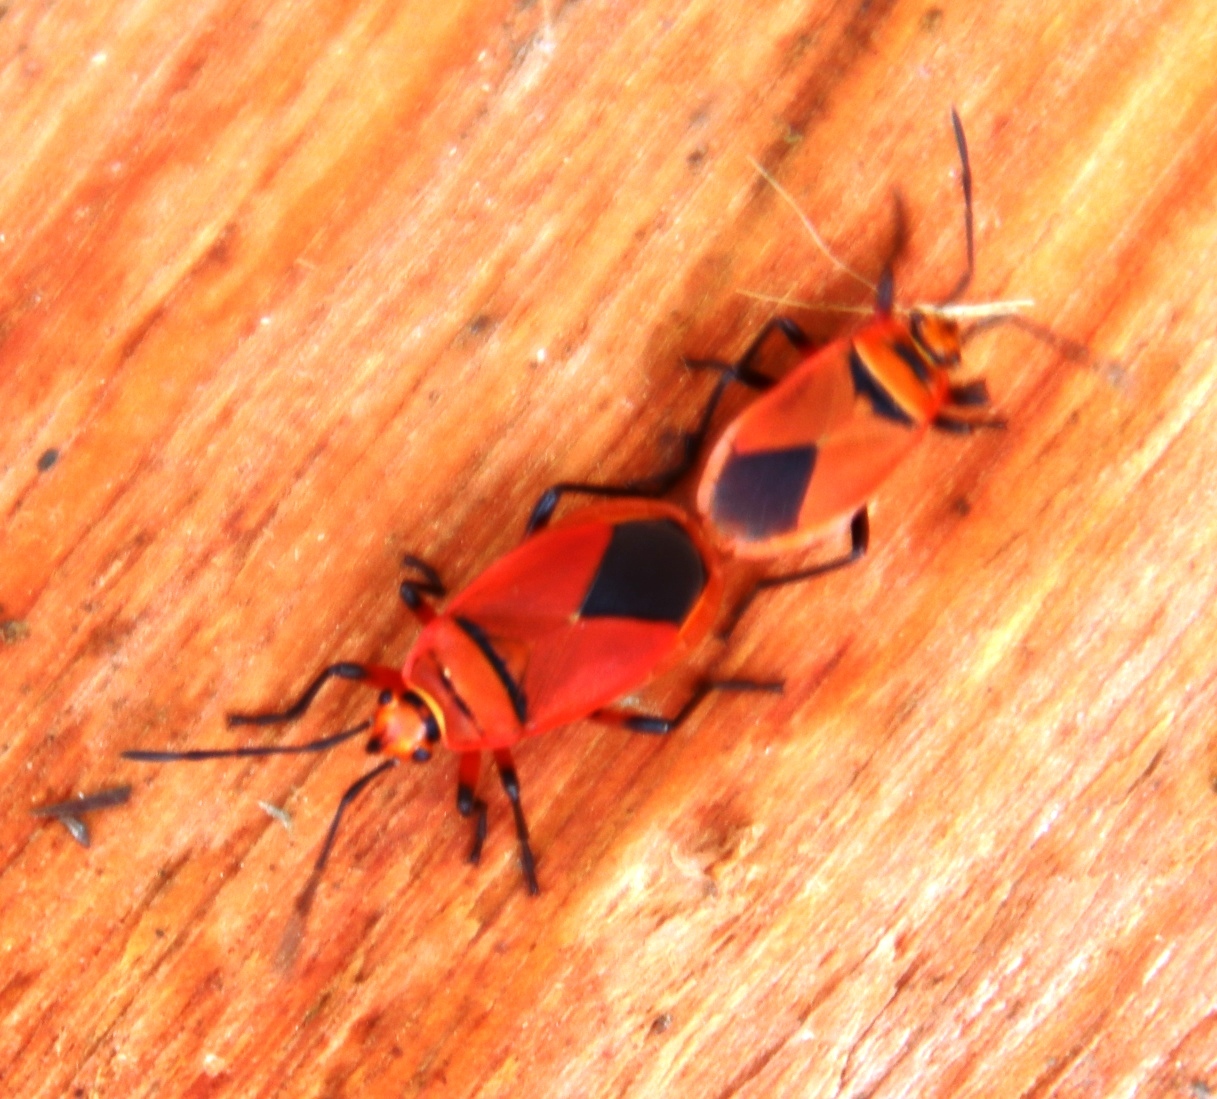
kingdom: Animalia
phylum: Arthropoda
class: Insecta
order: Hemiptera
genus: Cenaeus
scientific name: Cenaeus
